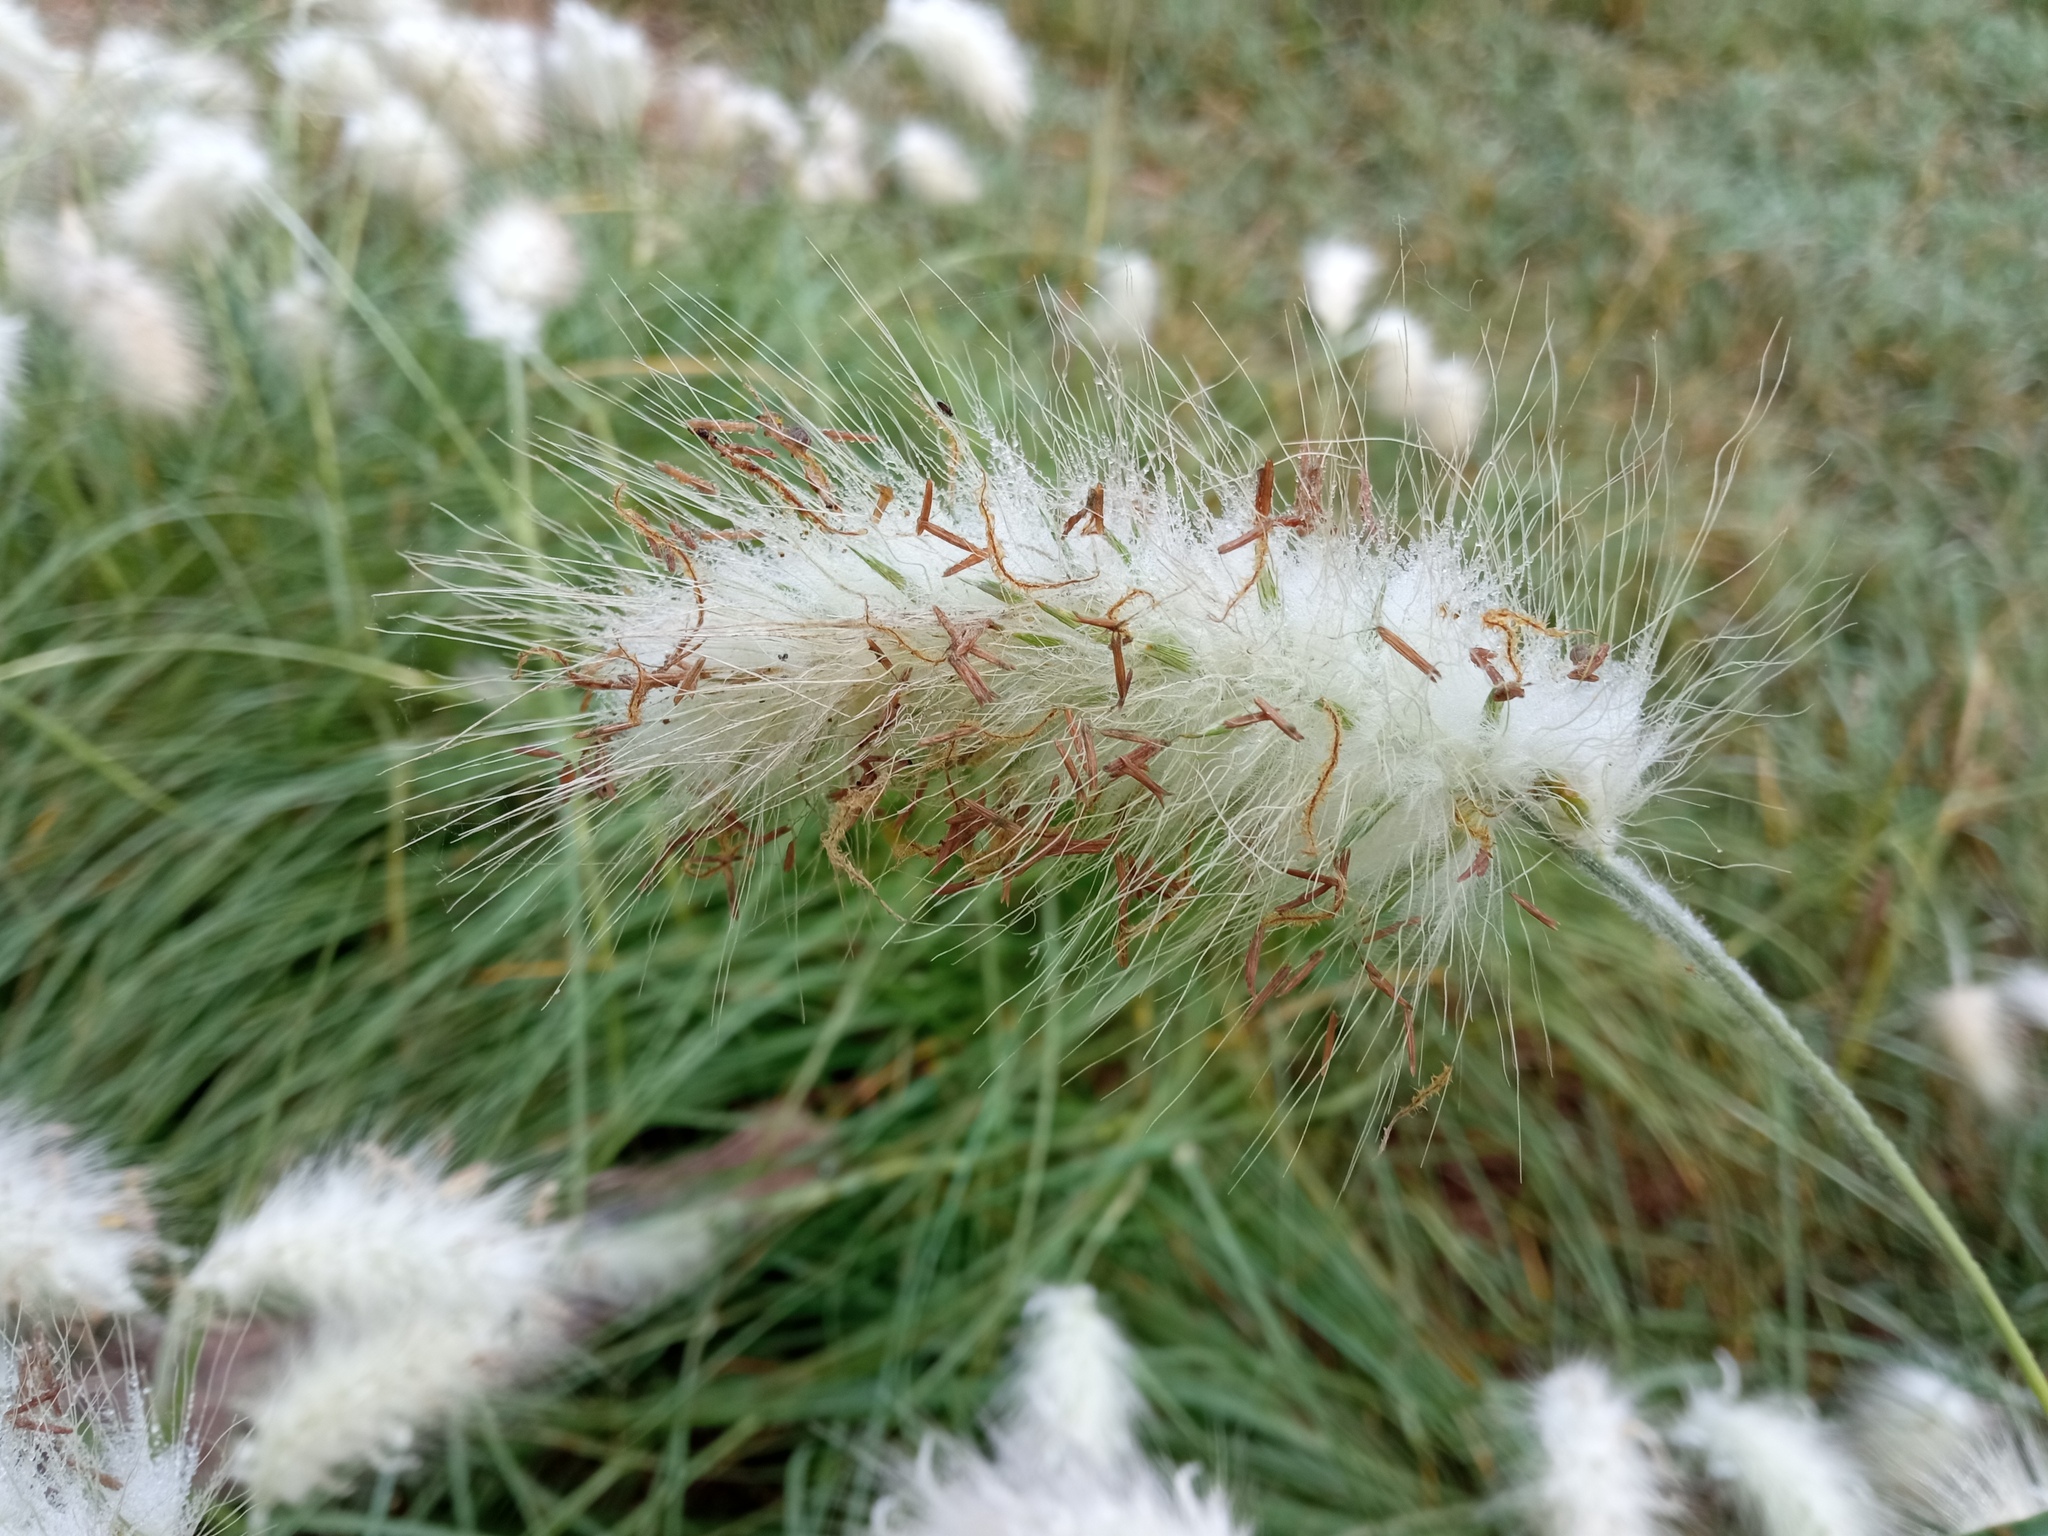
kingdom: Plantae
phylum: Tracheophyta
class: Liliopsida
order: Poales
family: Poaceae
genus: Cenchrus
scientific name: Cenchrus longisetus
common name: Feathertop
